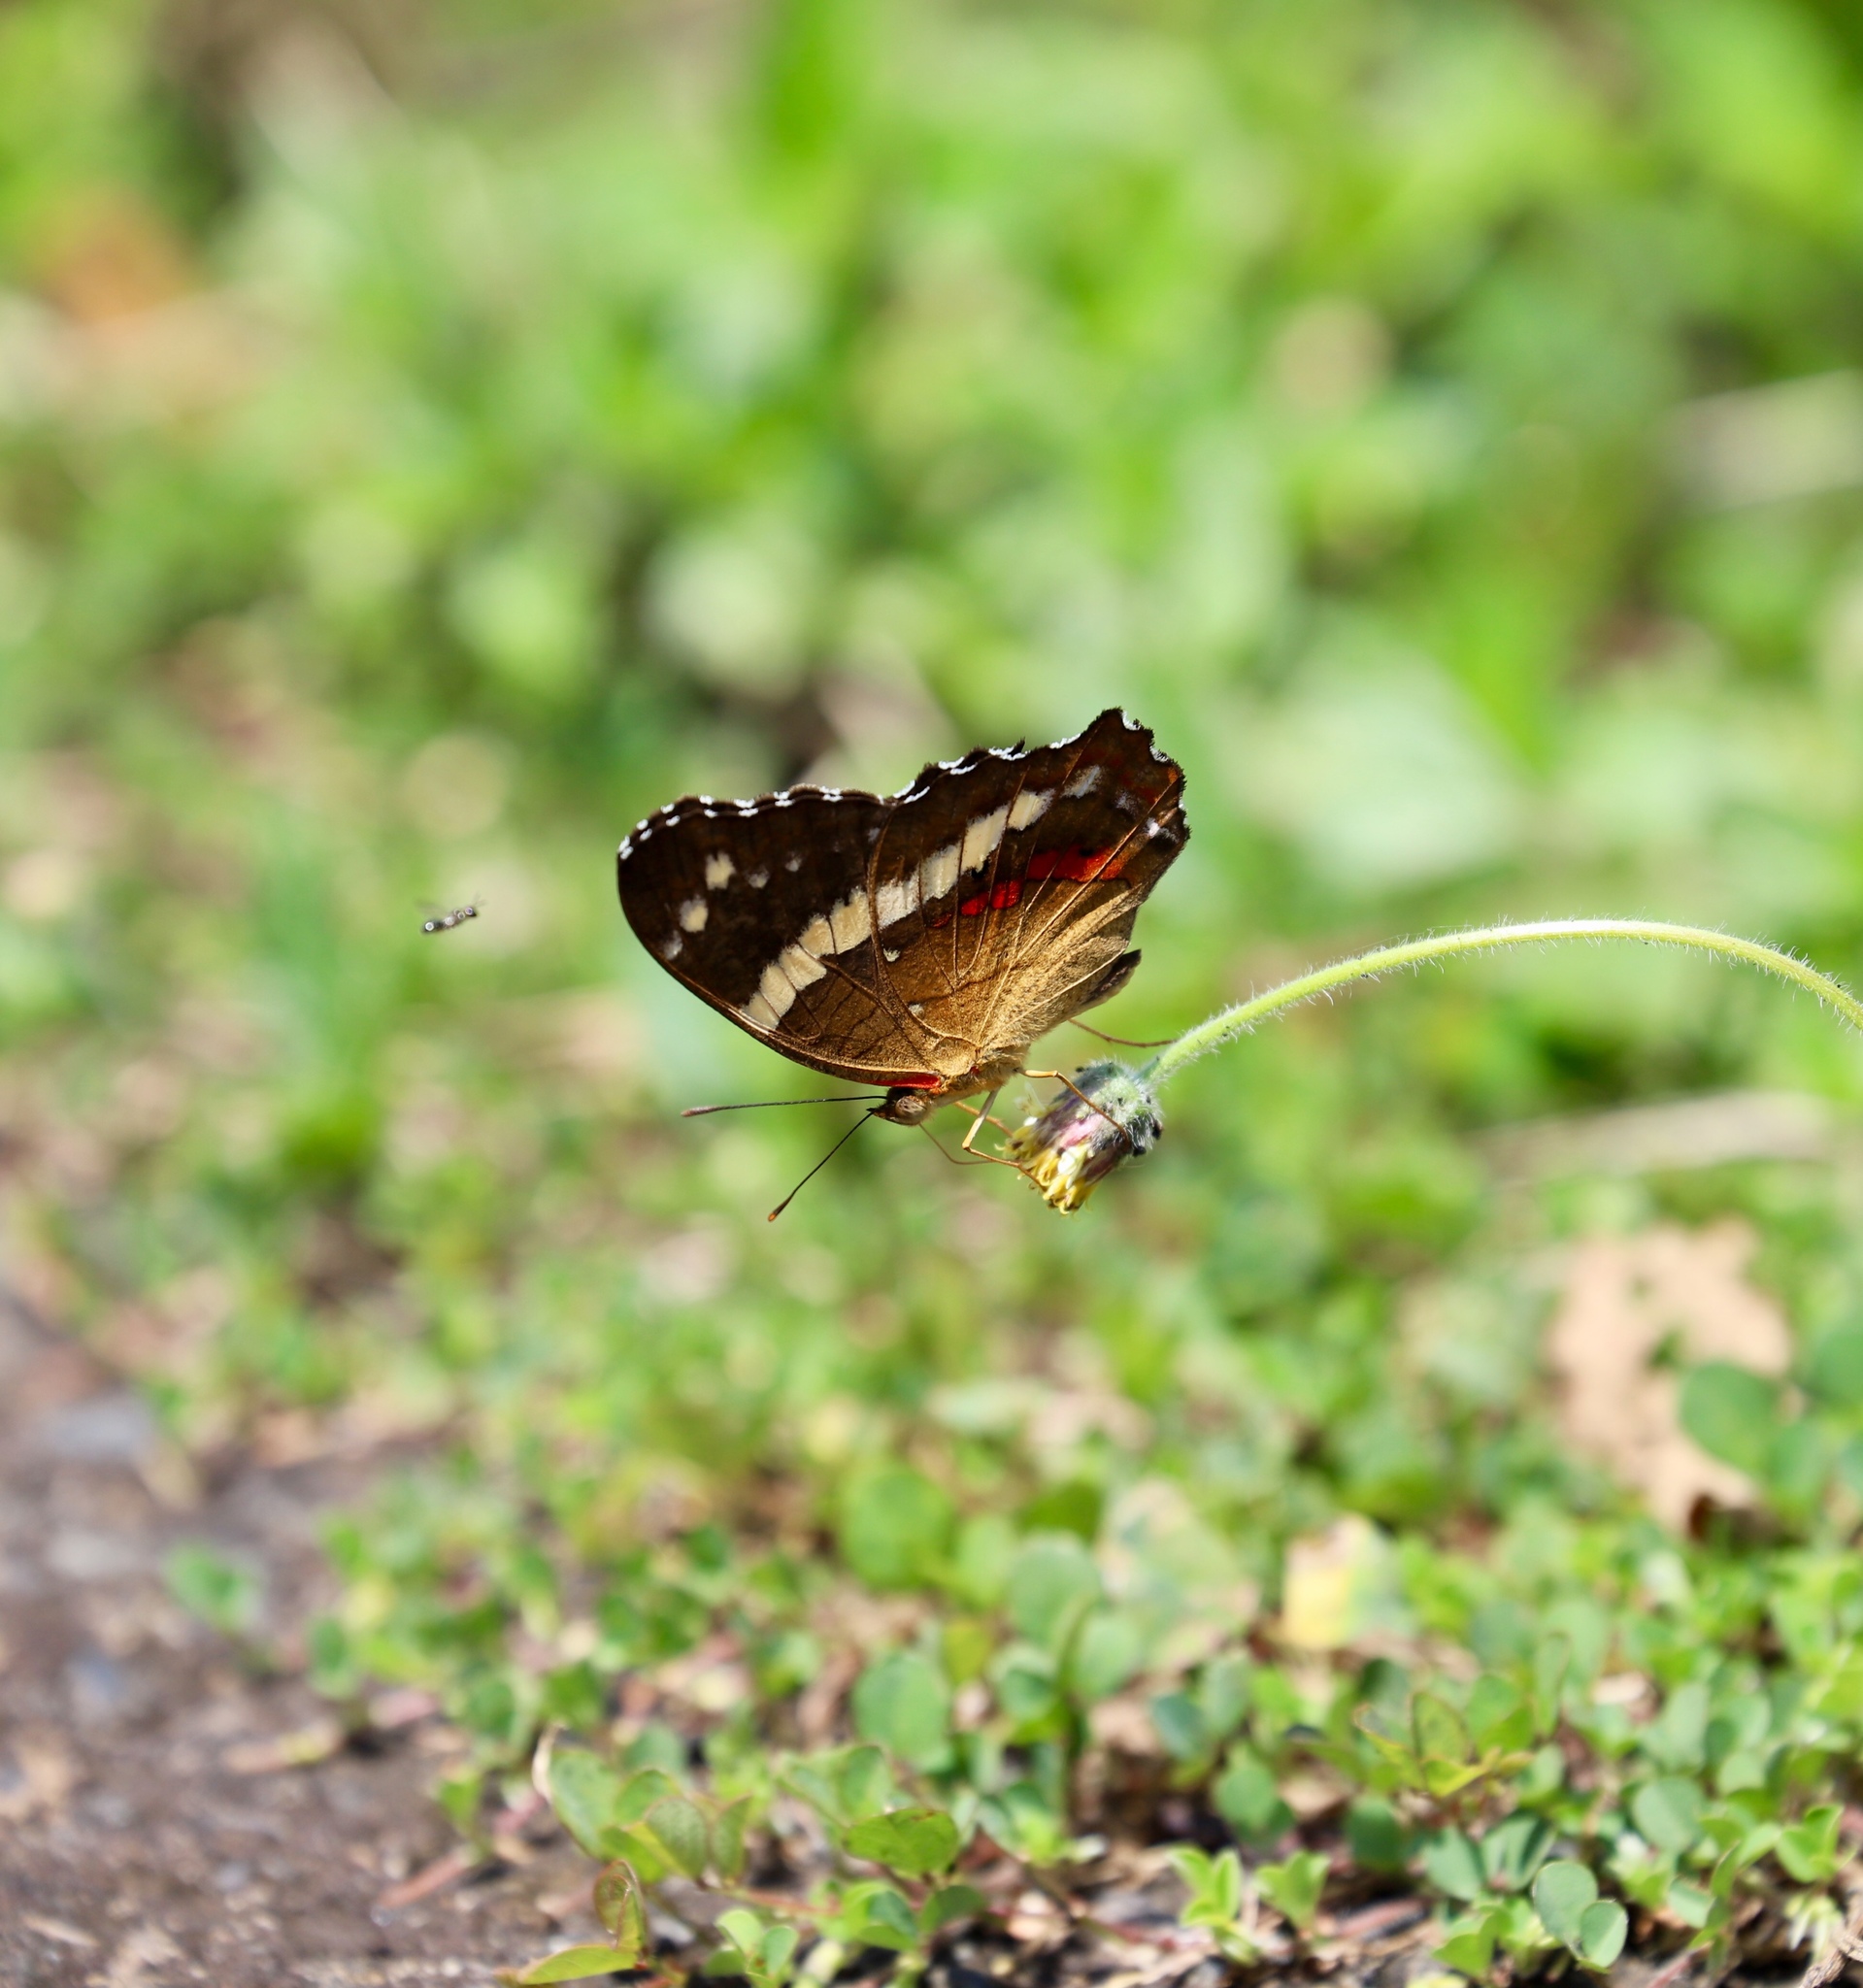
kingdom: Animalia
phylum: Arthropoda
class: Insecta
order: Lepidoptera
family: Nymphalidae
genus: Anartia
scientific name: Anartia fatima
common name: Banded peacock
